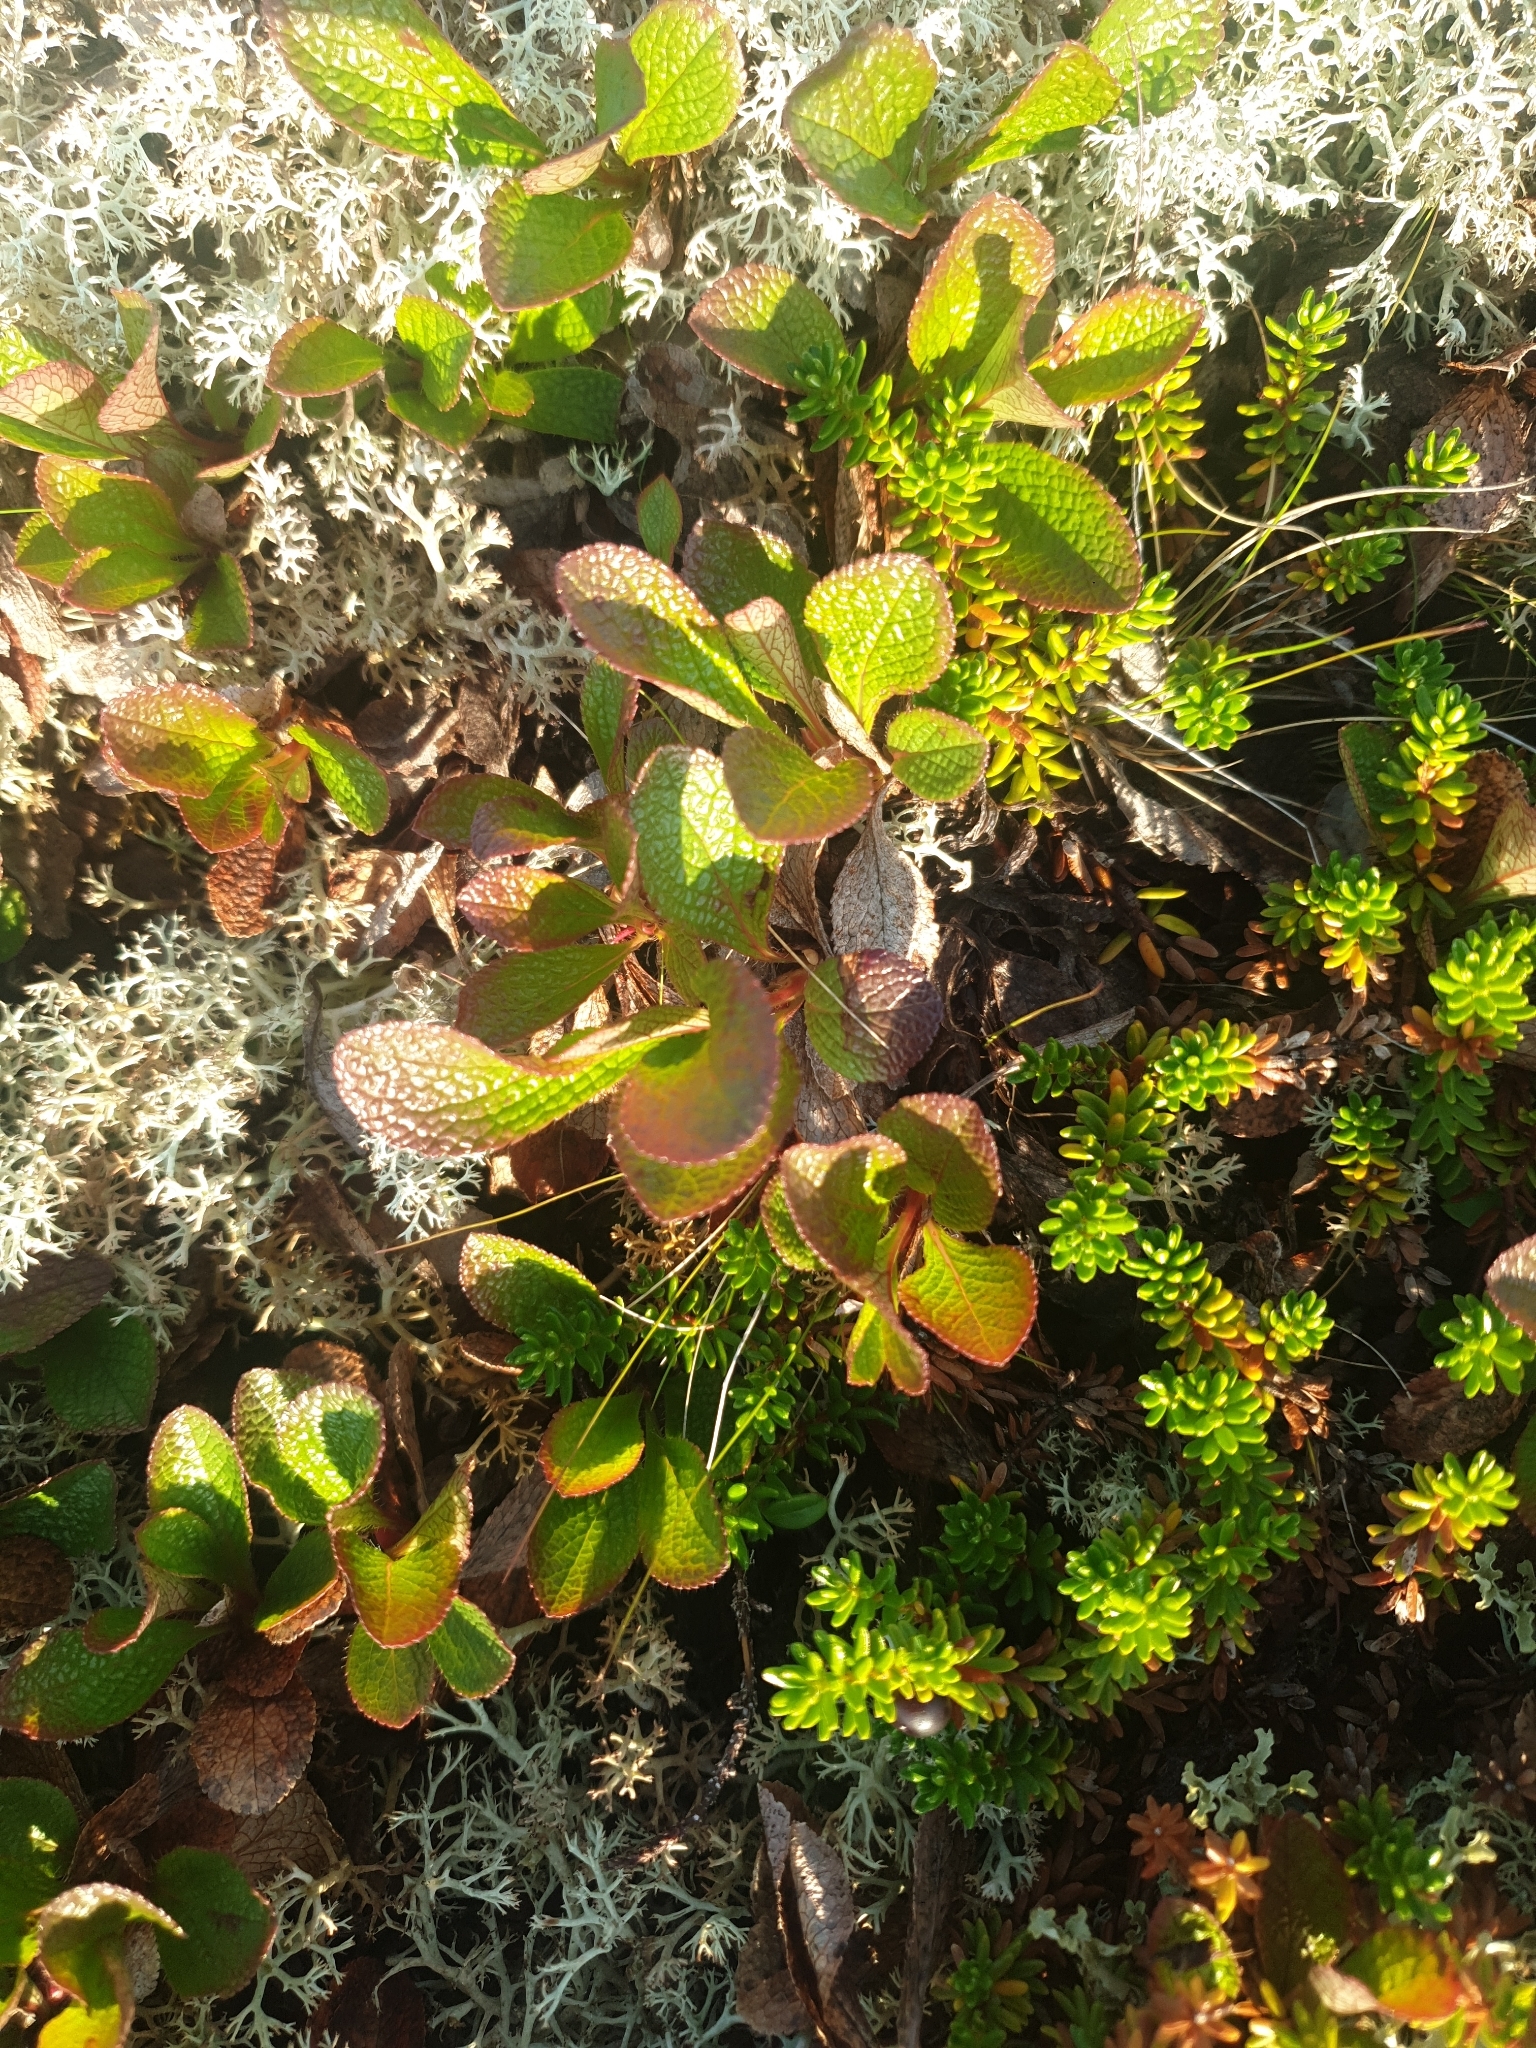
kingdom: Plantae
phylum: Tracheophyta
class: Magnoliopsida
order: Ericales
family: Ericaceae
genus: Arctostaphylos
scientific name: Arctostaphylos alpinus
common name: Alpine bearberry
